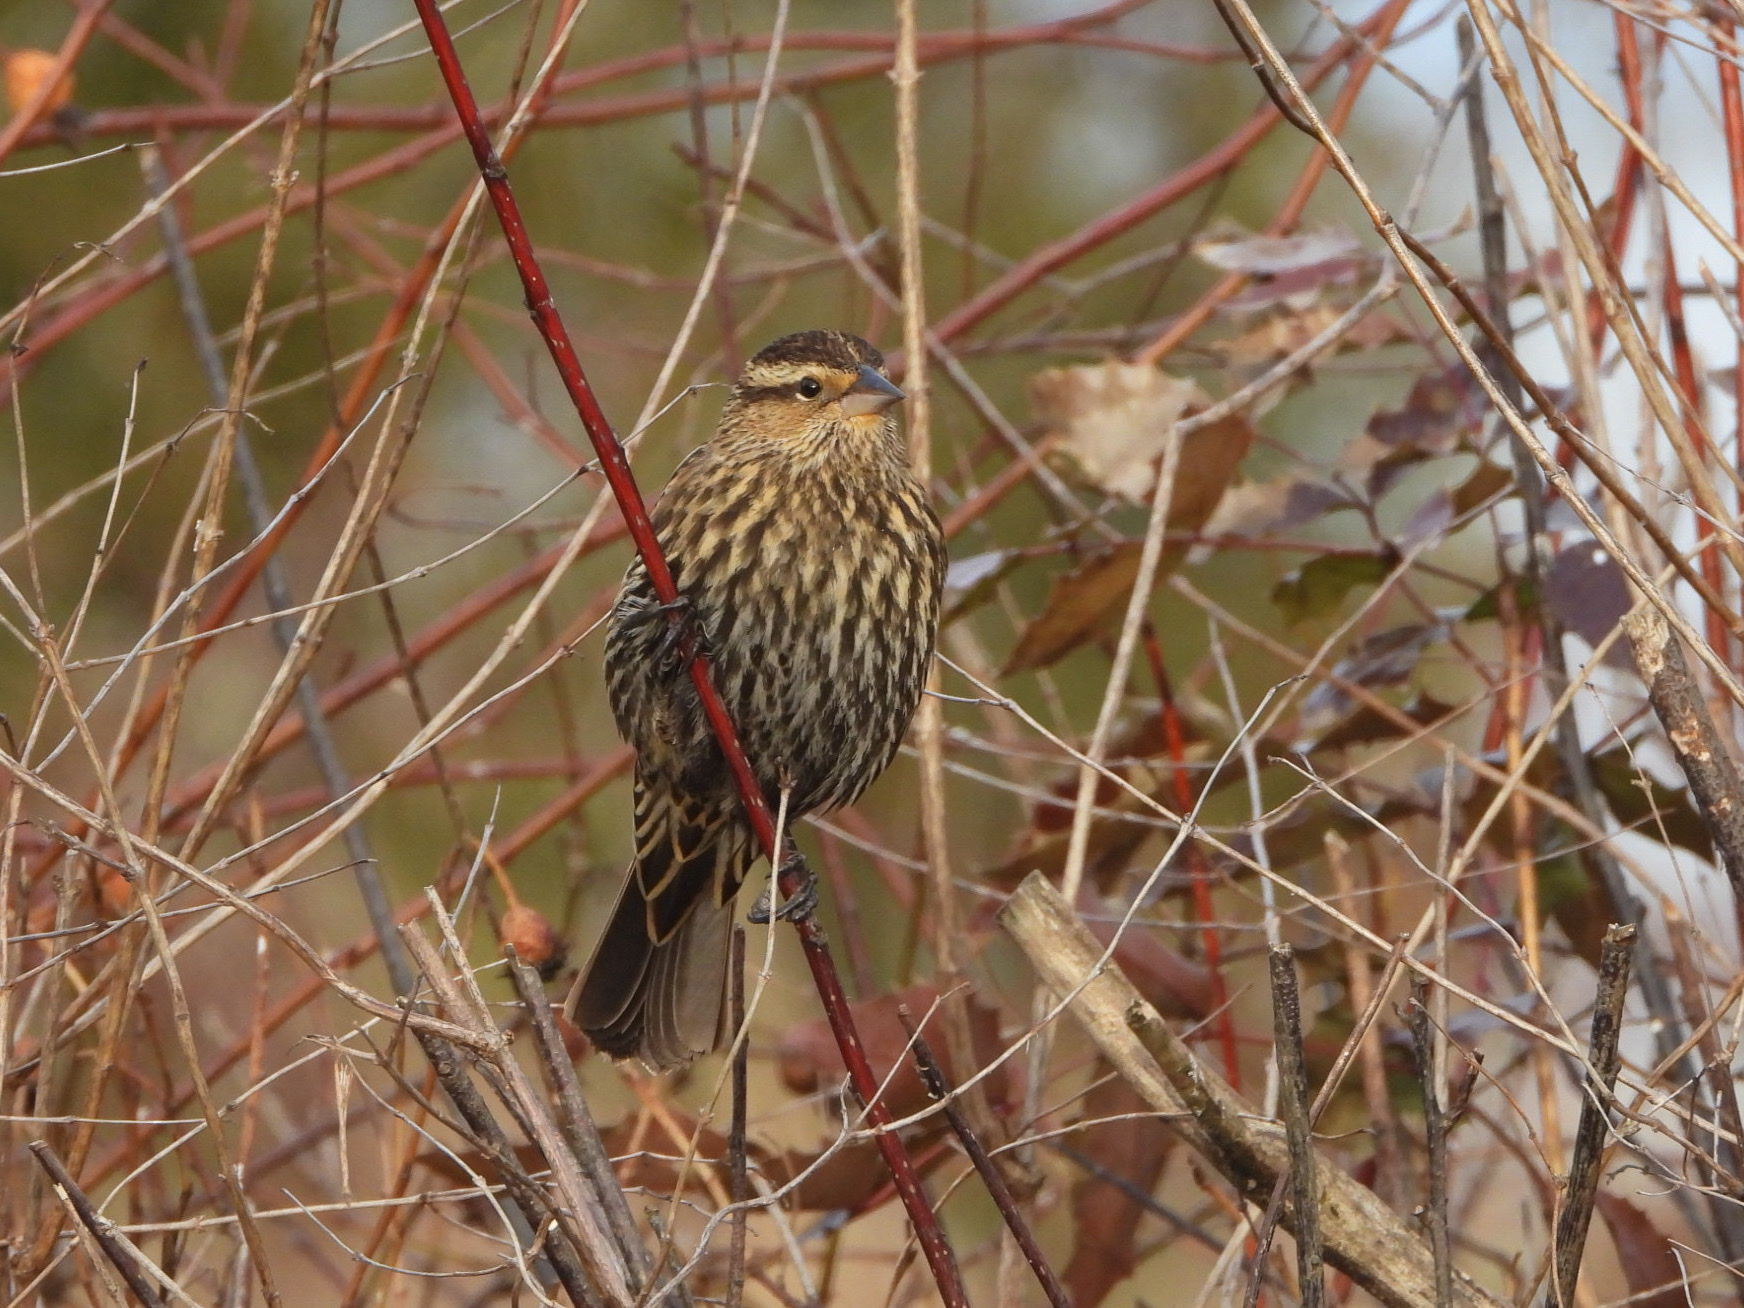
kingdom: Animalia
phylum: Chordata
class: Aves
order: Passeriformes
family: Icteridae
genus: Agelaius
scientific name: Agelaius phoeniceus
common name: Red-winged blackbird
